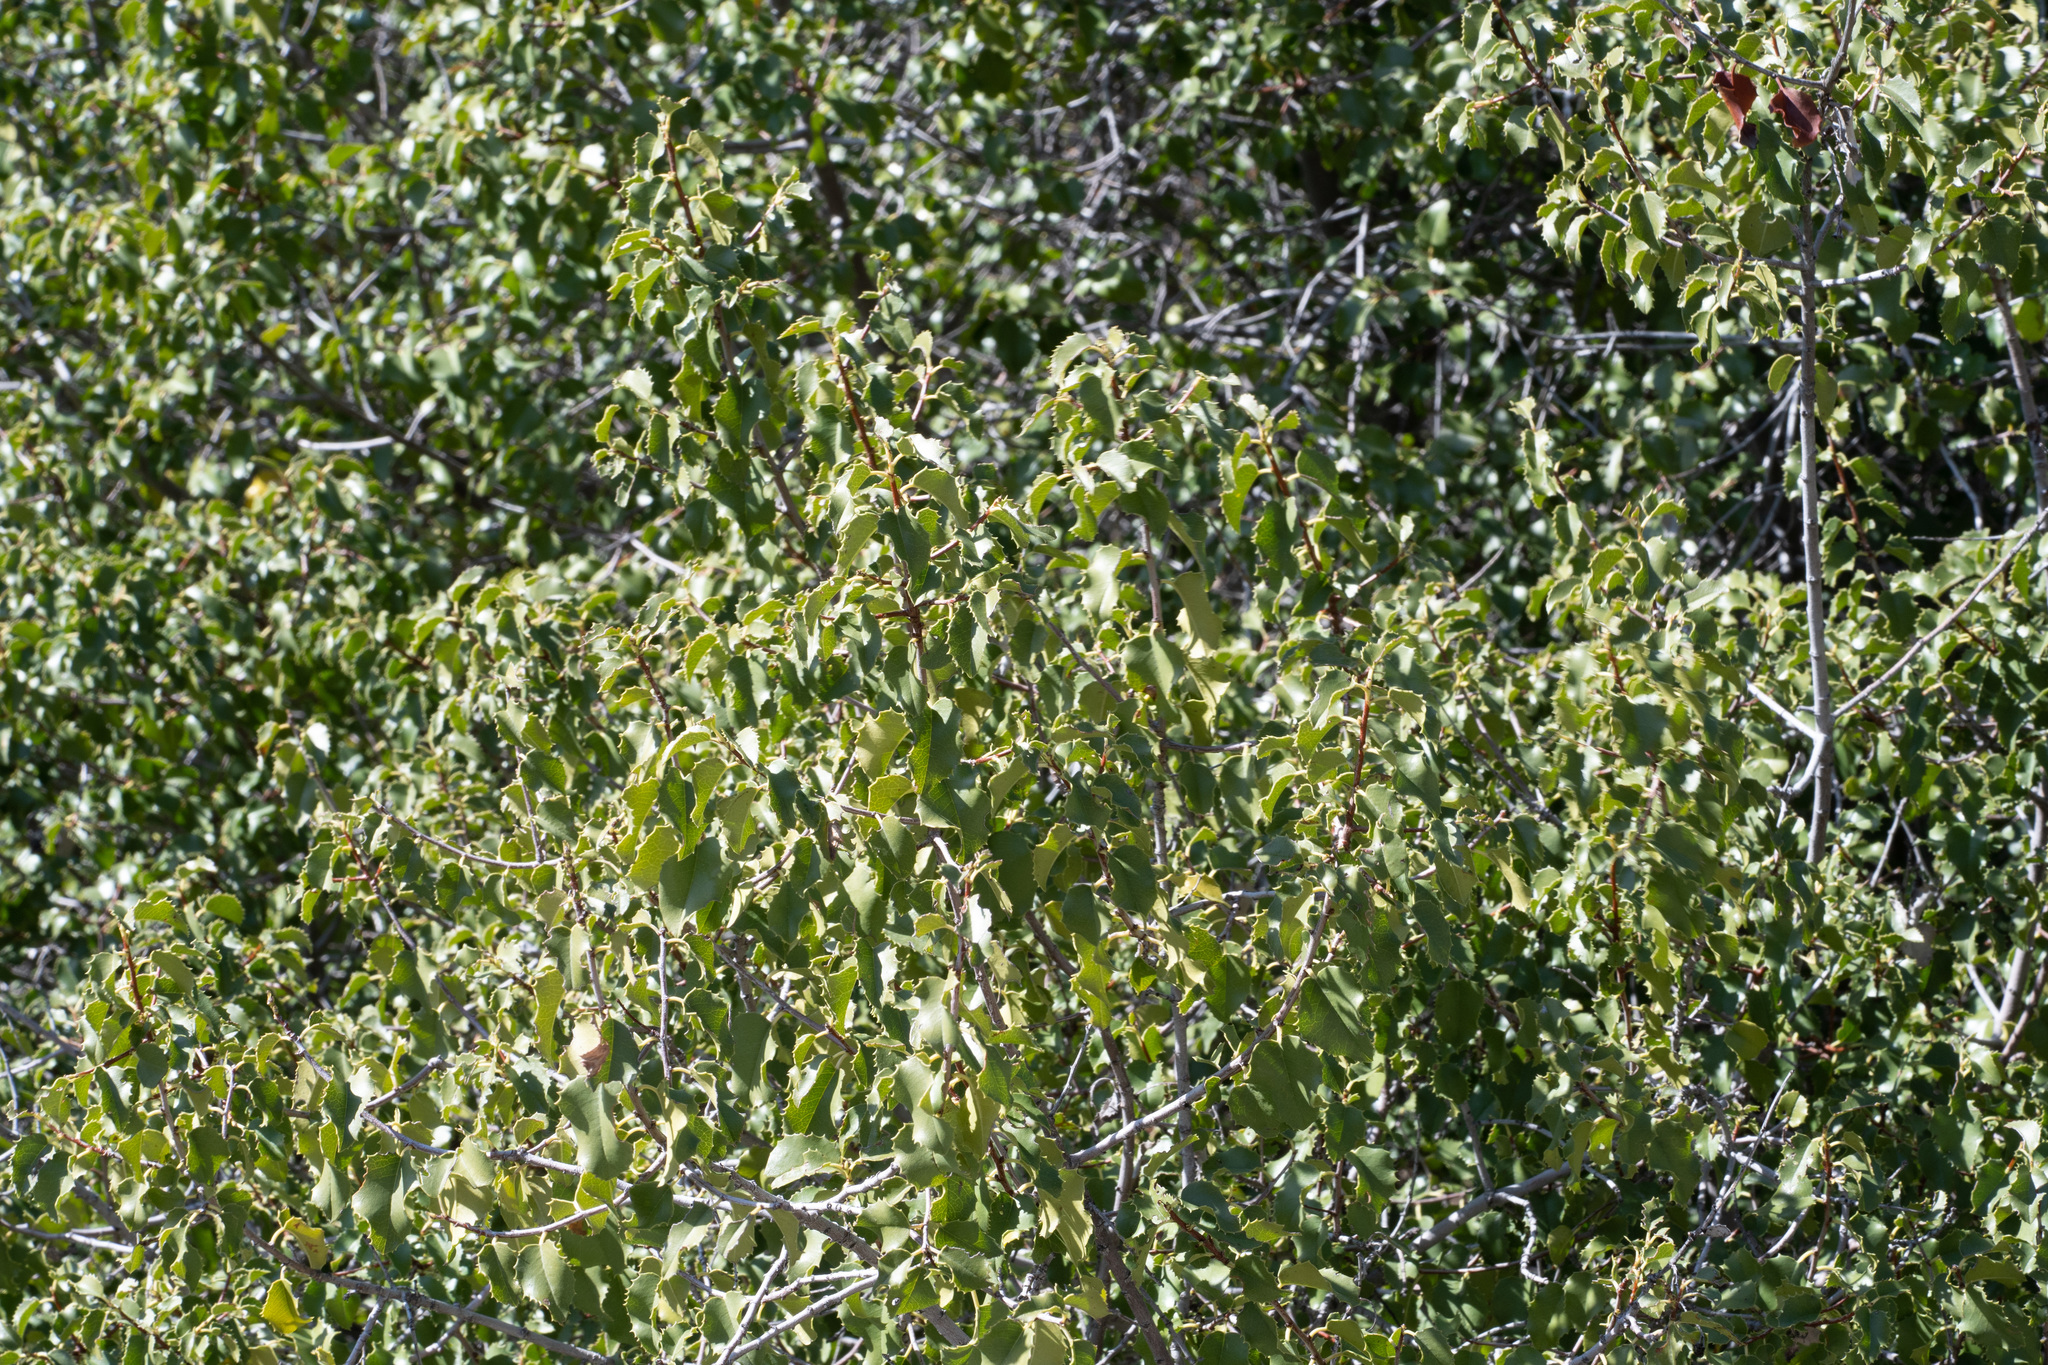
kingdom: Plantae
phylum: Tracheophyta
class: Magnoliopsida
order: Rosales
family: Rosaceae
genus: Prunus
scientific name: Prunus ilicifolia
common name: Hollyleaf cherry
